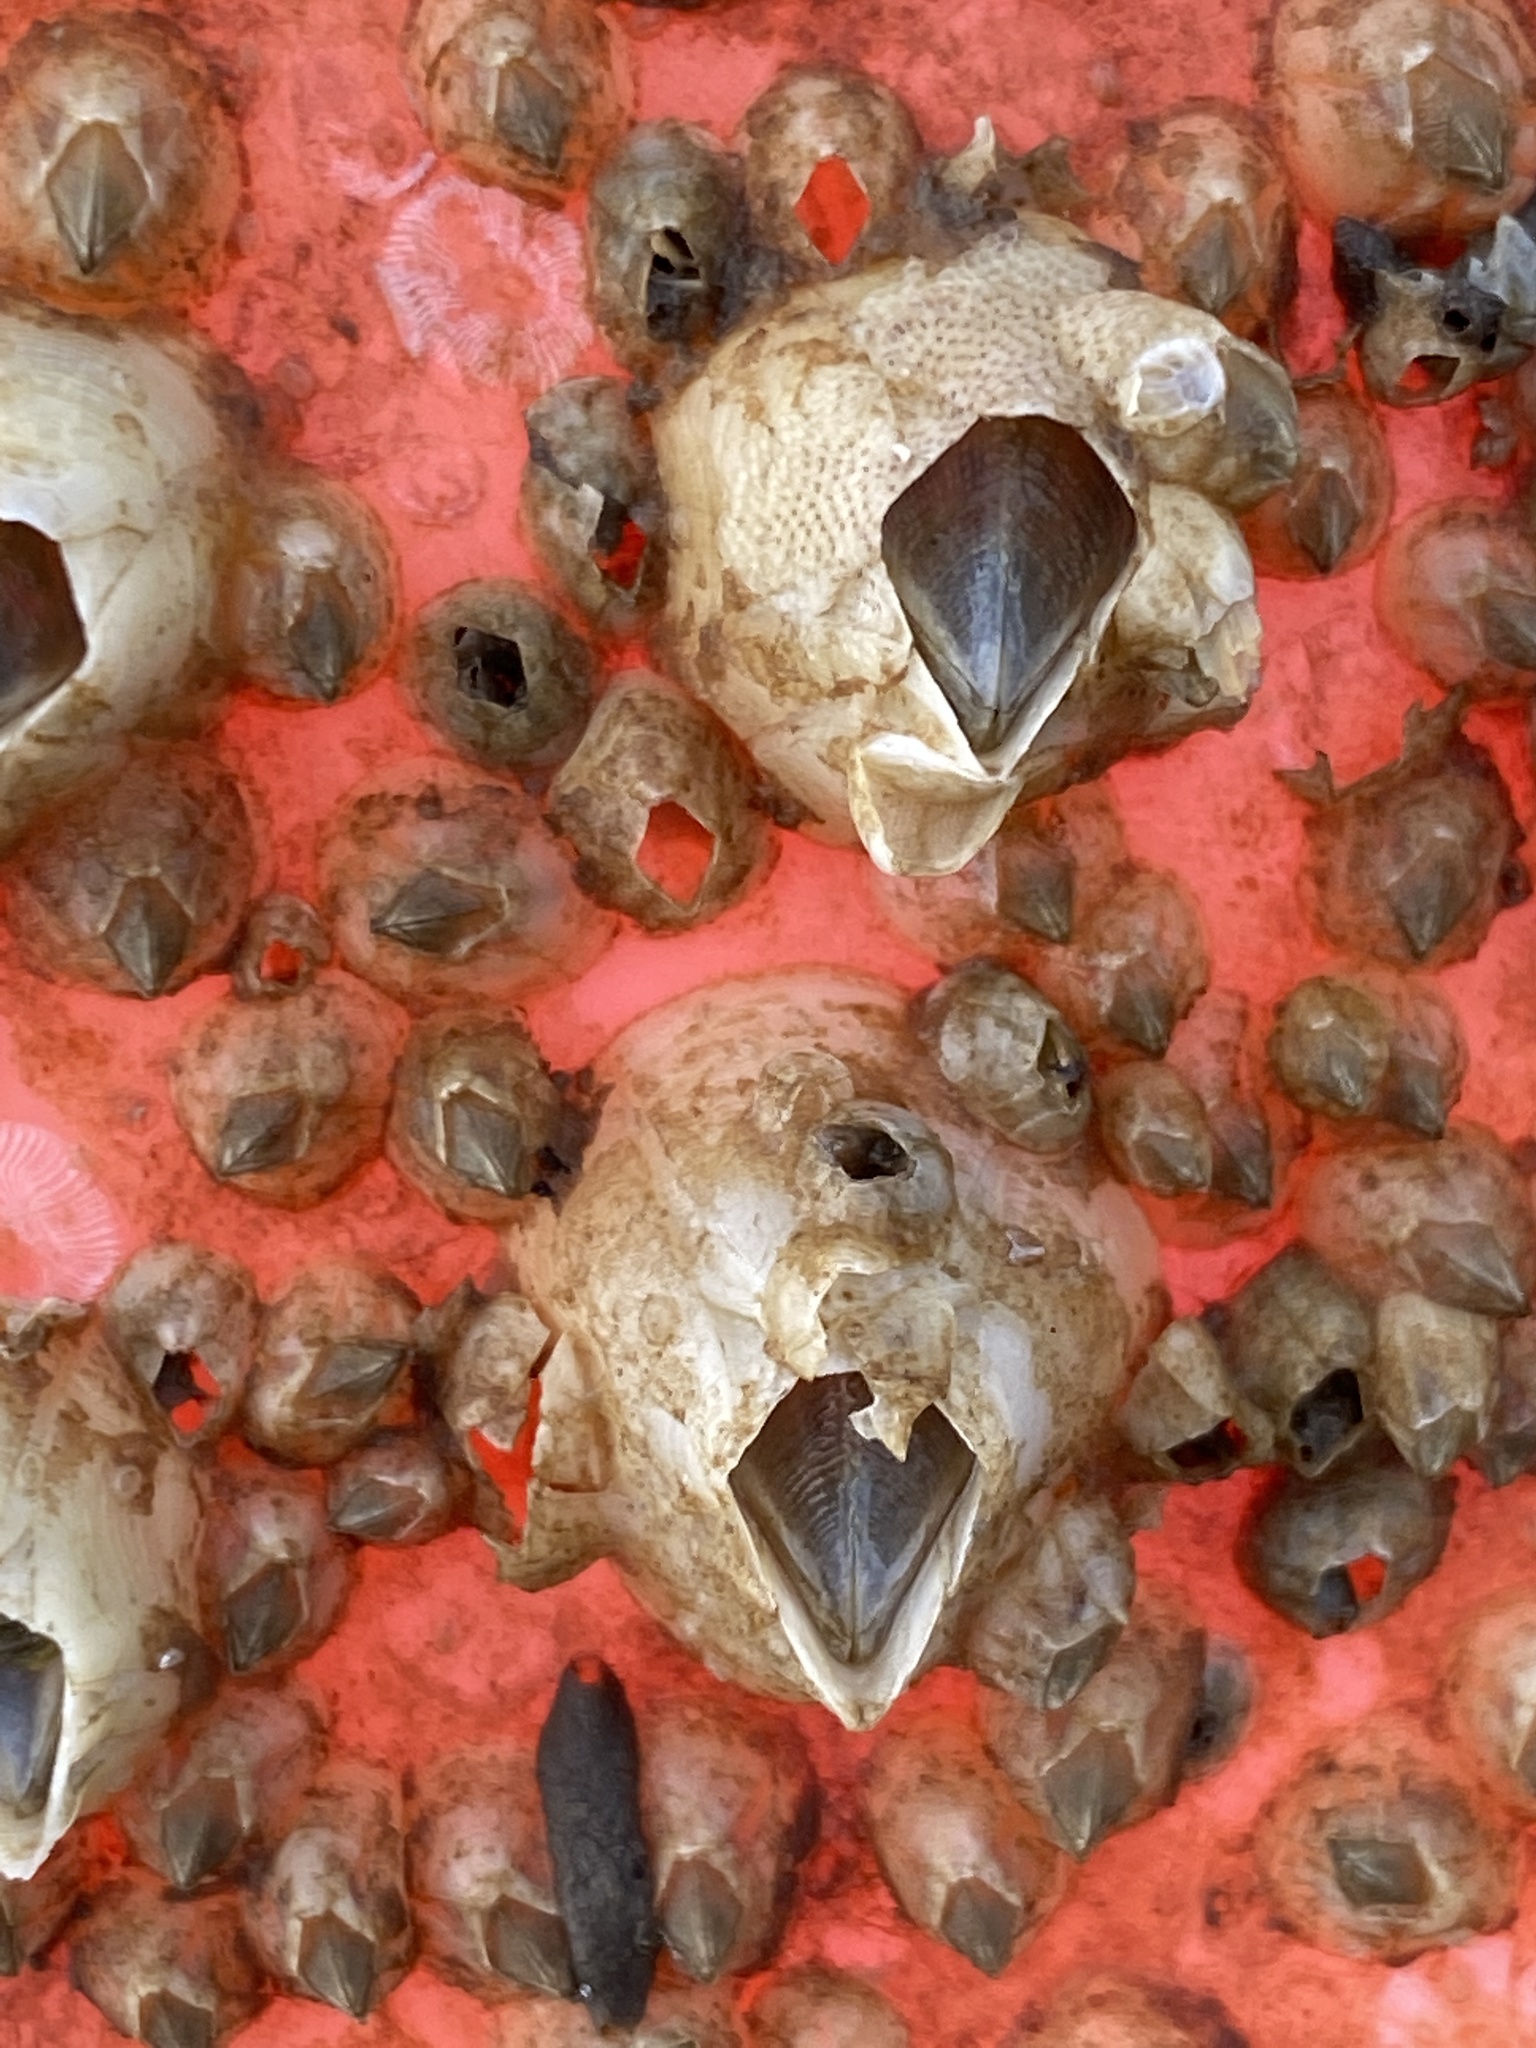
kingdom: Animalia
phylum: Arthropoda
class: Maxillopoda
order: Sessilia
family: Balanidae
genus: Amphibalanus
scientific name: Amphibalanus eburneus
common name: Ivory barnacle
